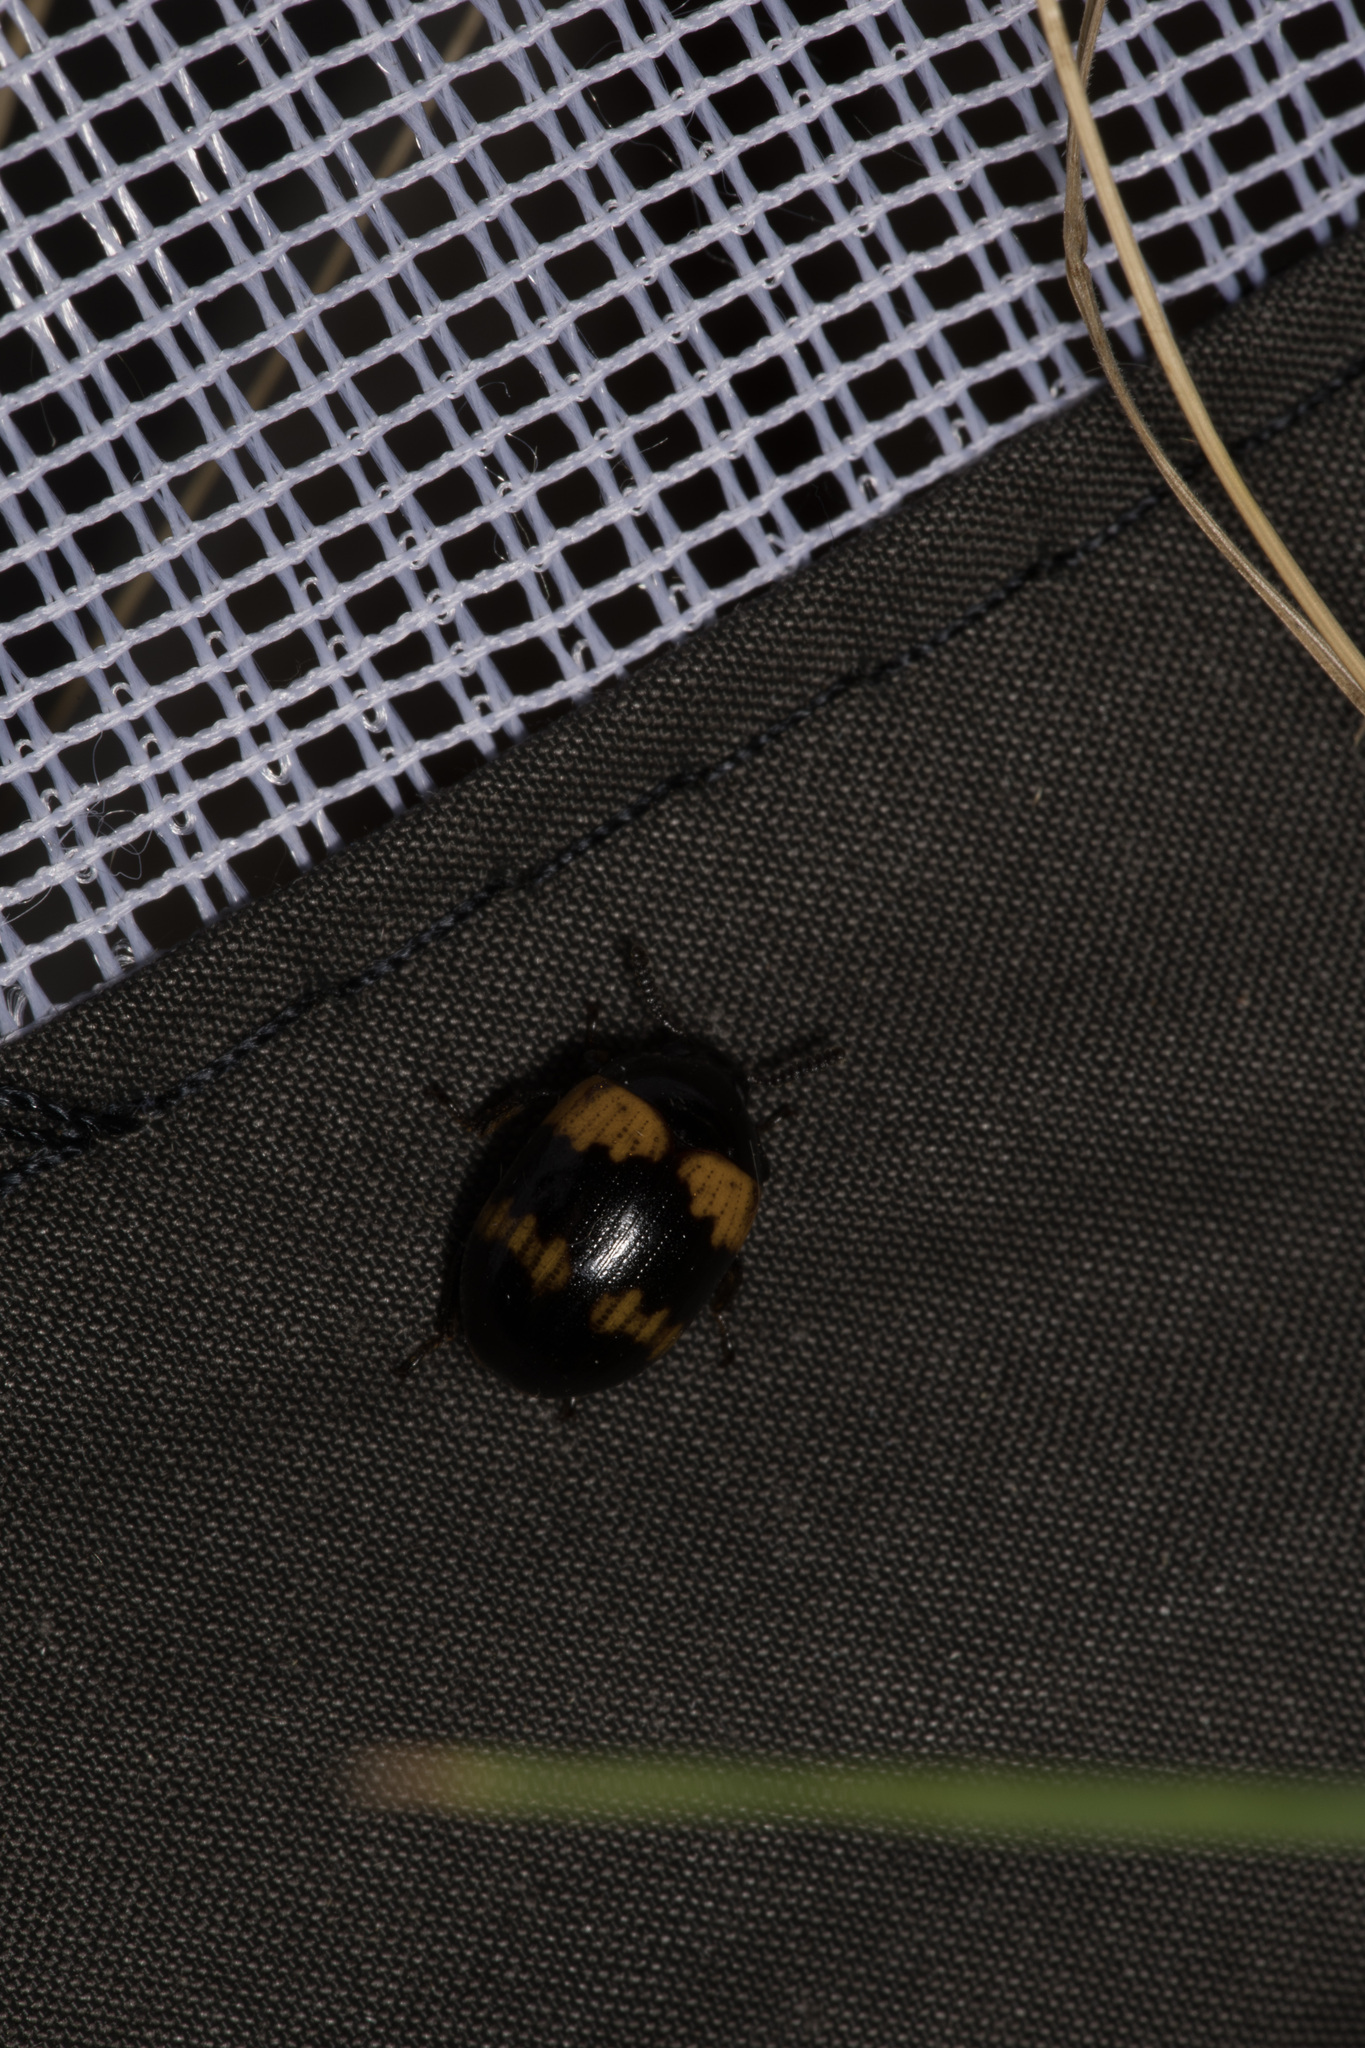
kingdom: Animalia
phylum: Arthropoda
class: Insecta
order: Coleoptera
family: Tenebrionidae
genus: Diaperis
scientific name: Diaperis boleti
